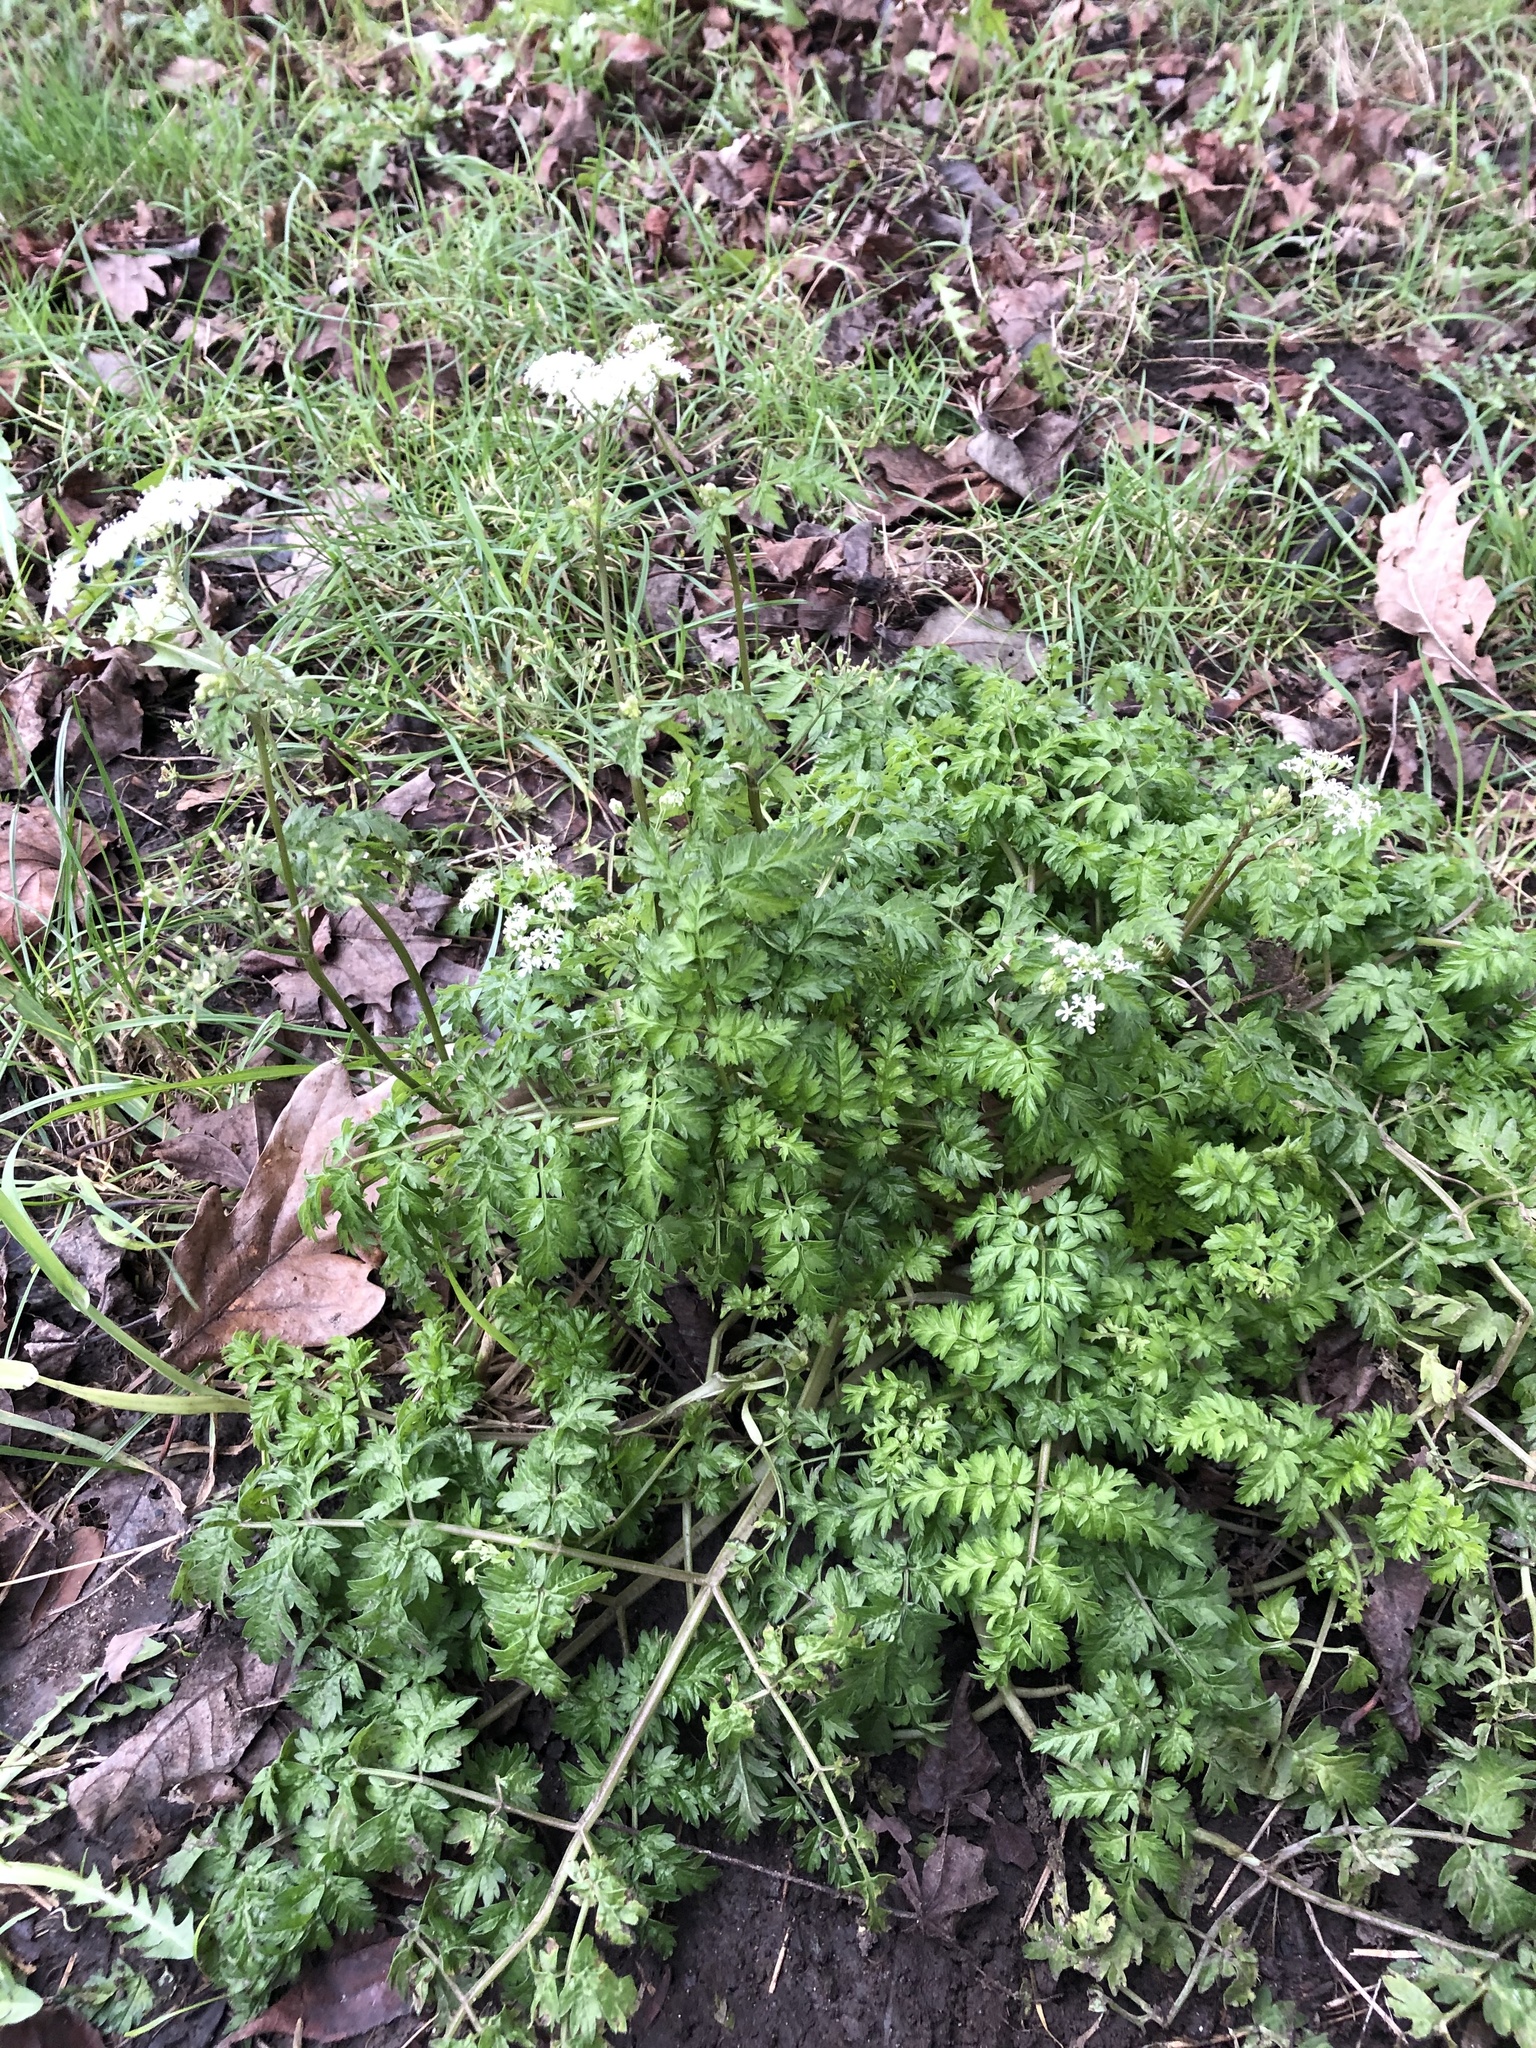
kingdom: Plantae
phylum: Tracheophyta
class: Magnoliopsida
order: Apiales
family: Apiaceae
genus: Anthriscus
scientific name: Anthriscus sylvestris
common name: Cow parsley
